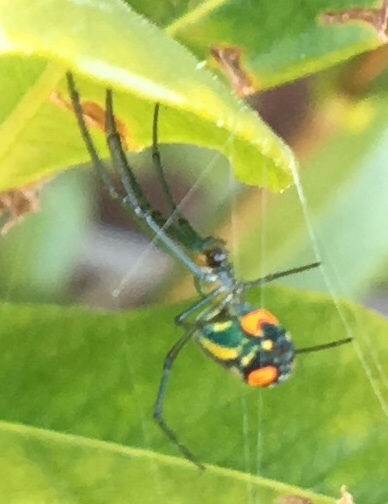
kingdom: Animalia
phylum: Arthropoda
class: Arachnida
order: Araneae
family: Tetragnathidae
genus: Leucauge
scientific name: Leucauge argyrobapta
